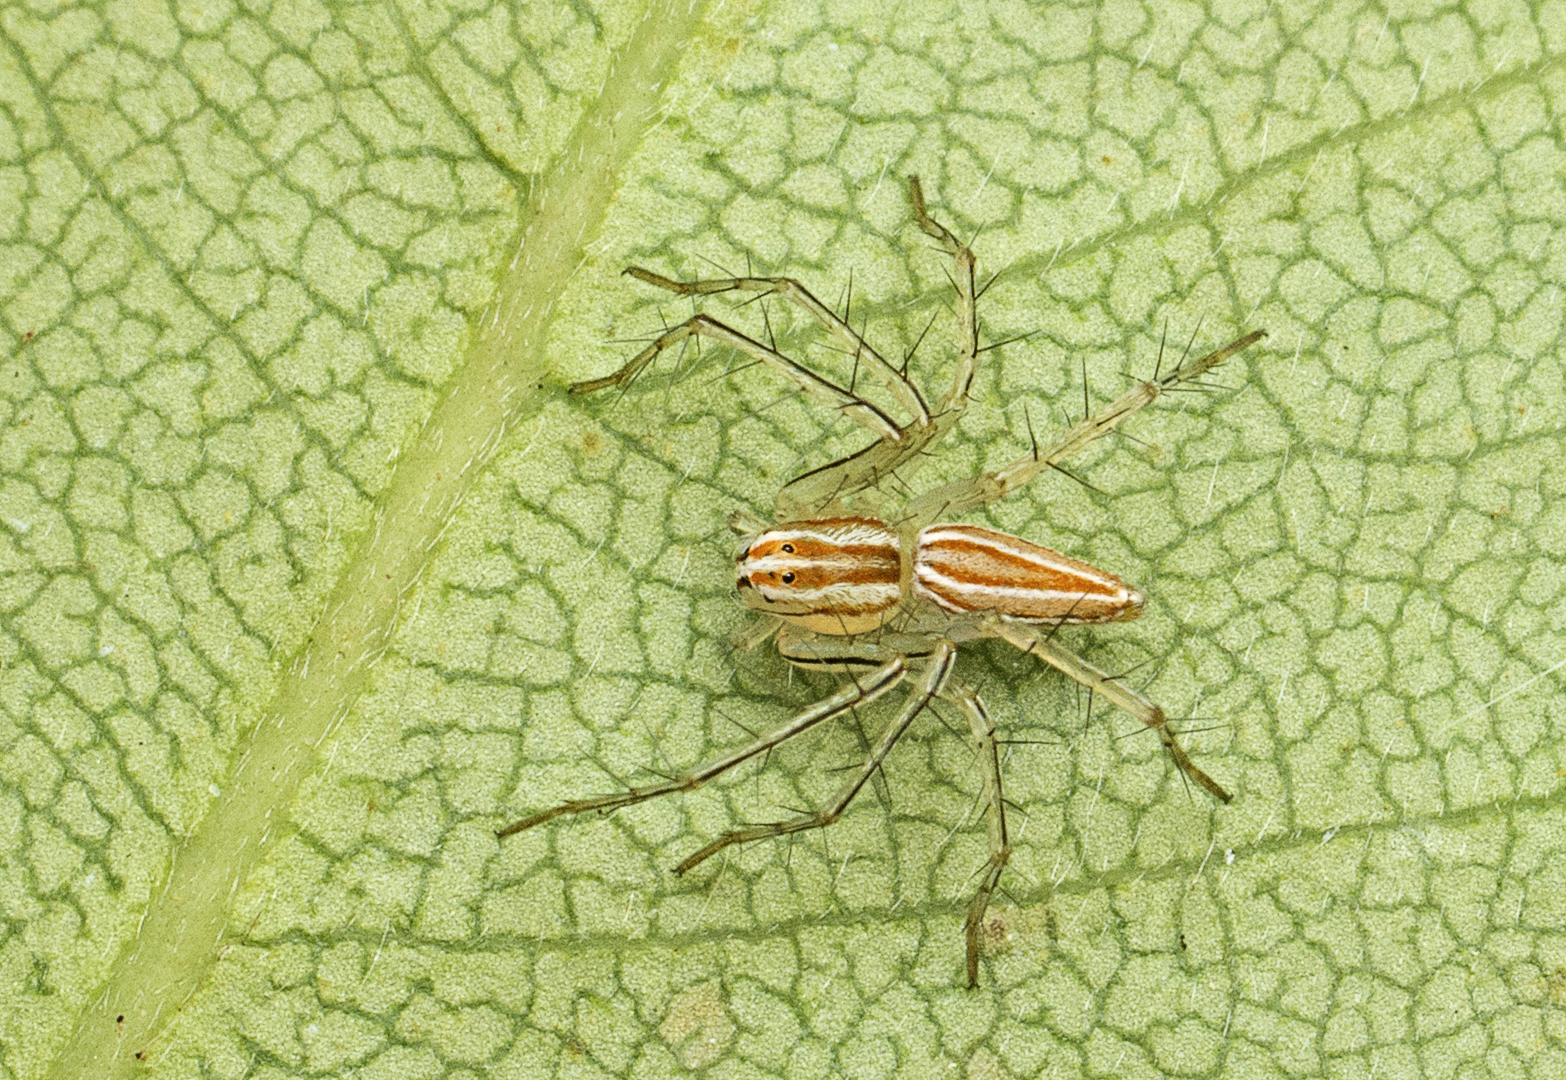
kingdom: Animalia
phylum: Arthropoda
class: Arachnida
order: Araneae
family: Oxyopidae
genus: Oxyopes
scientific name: Oxyopes macilentus
